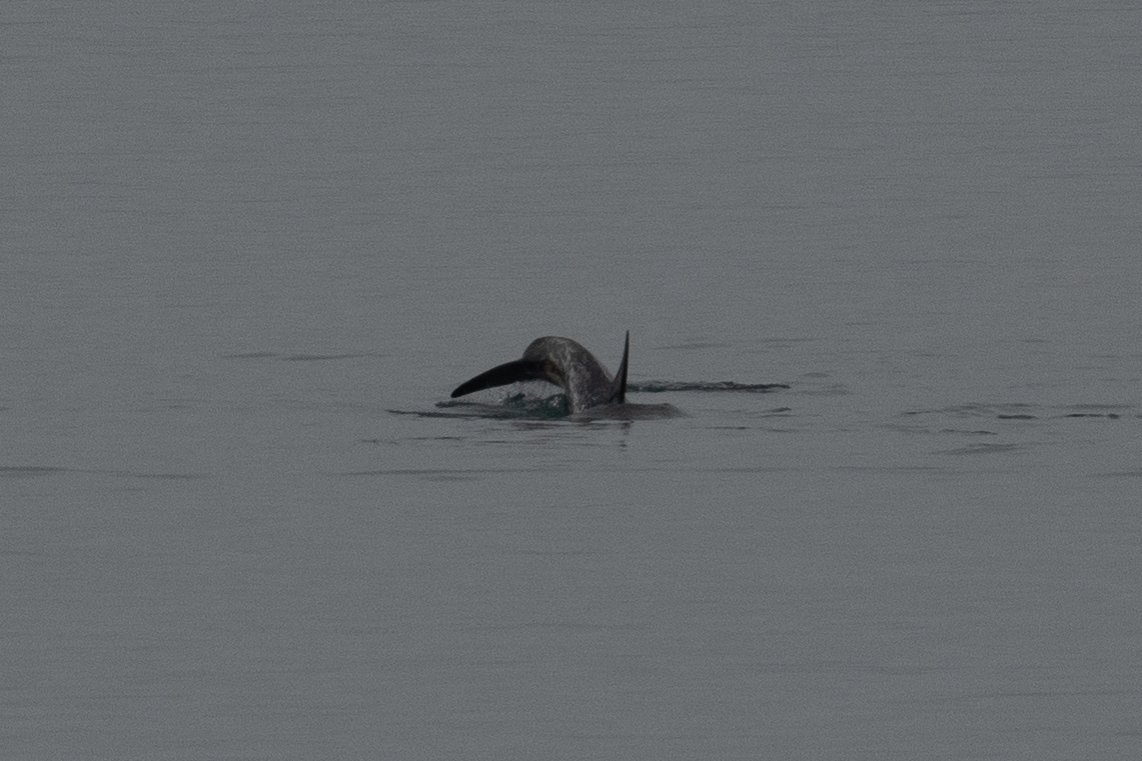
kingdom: Animalia
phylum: Chordata
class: Mammalia
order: Cetacea
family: Delphinidae
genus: Grampus
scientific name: Grampus griseus
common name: Risso's dolphin
